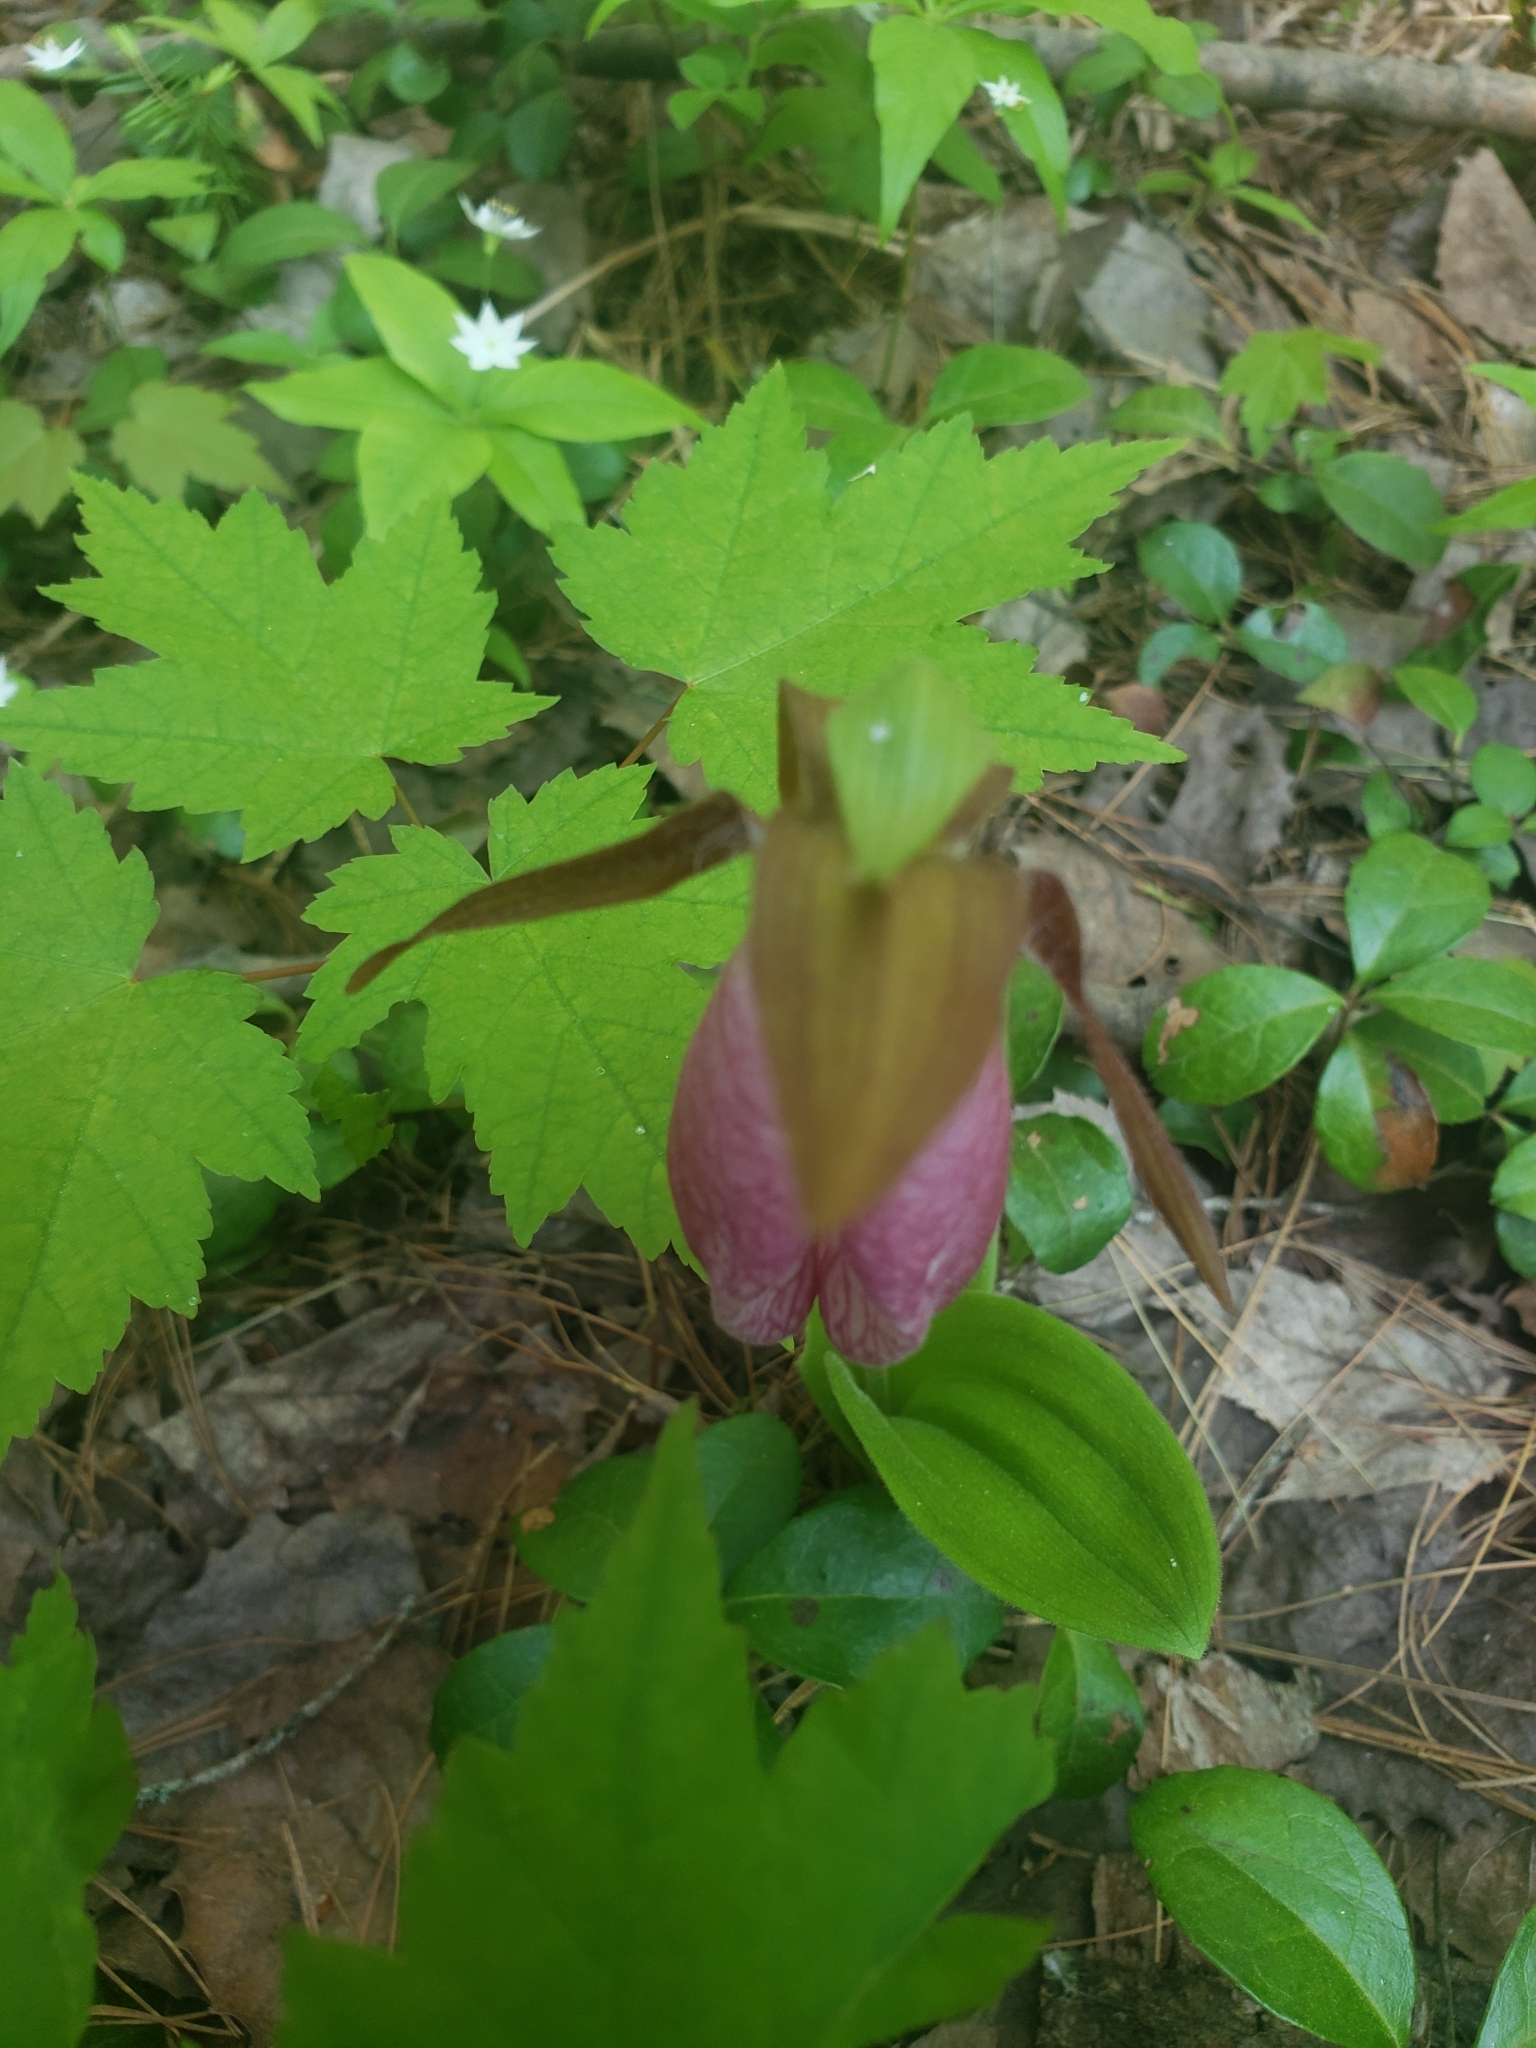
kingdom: Plantae
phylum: Tracheophyta
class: Liliopsida
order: Asparagales
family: Orchidaceae
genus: Cypripedium
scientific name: Cypripedium acaule
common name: Pink lady's-slipper
